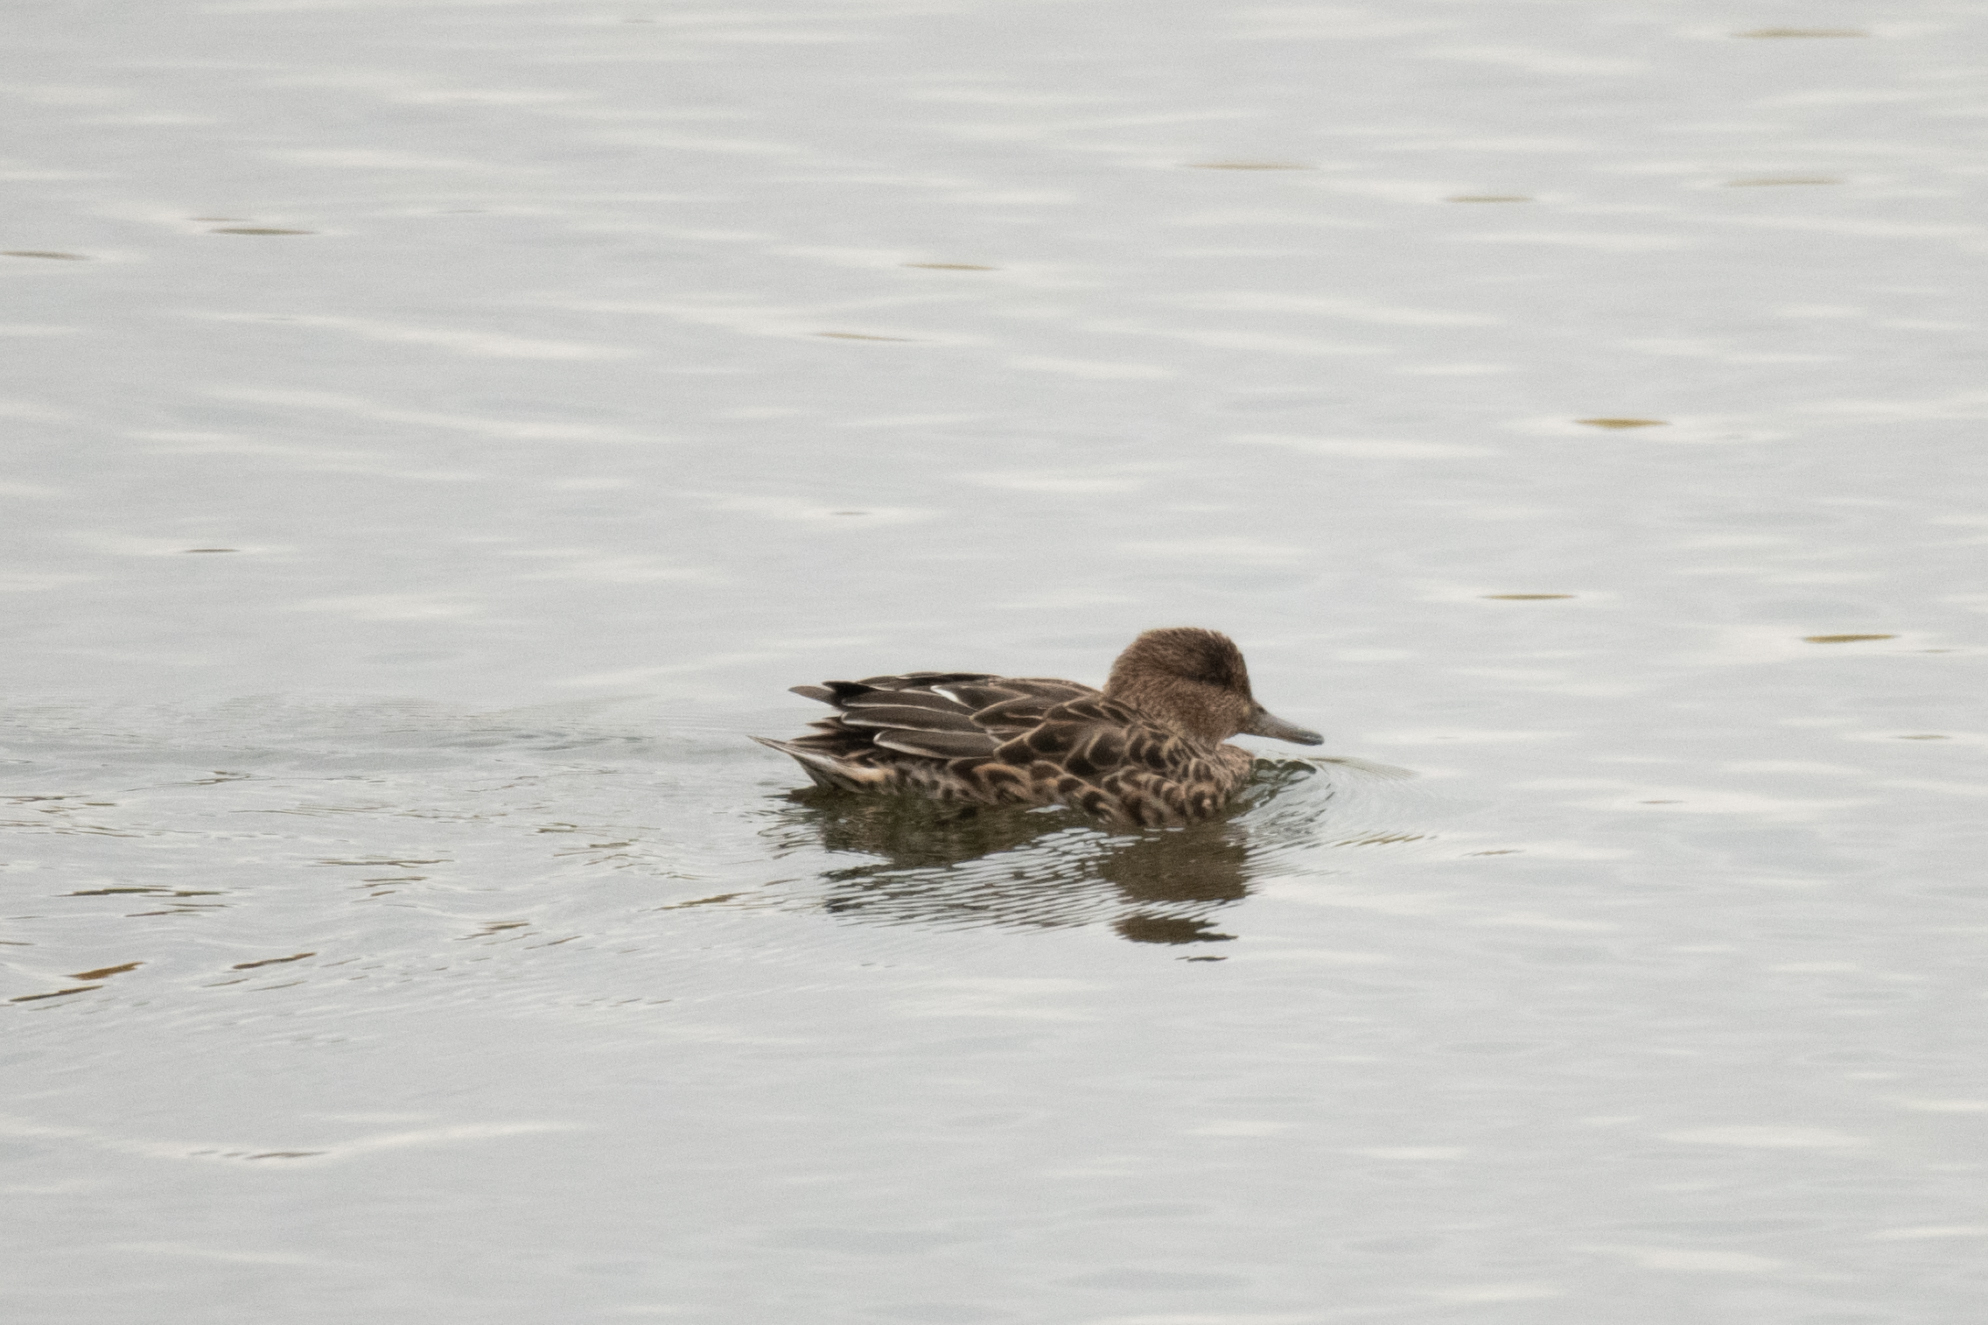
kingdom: Animalia
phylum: Chordata
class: Aves
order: Anseriformes
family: Anatidae
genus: Anas
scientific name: Anas crecca
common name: Eurasian teal
